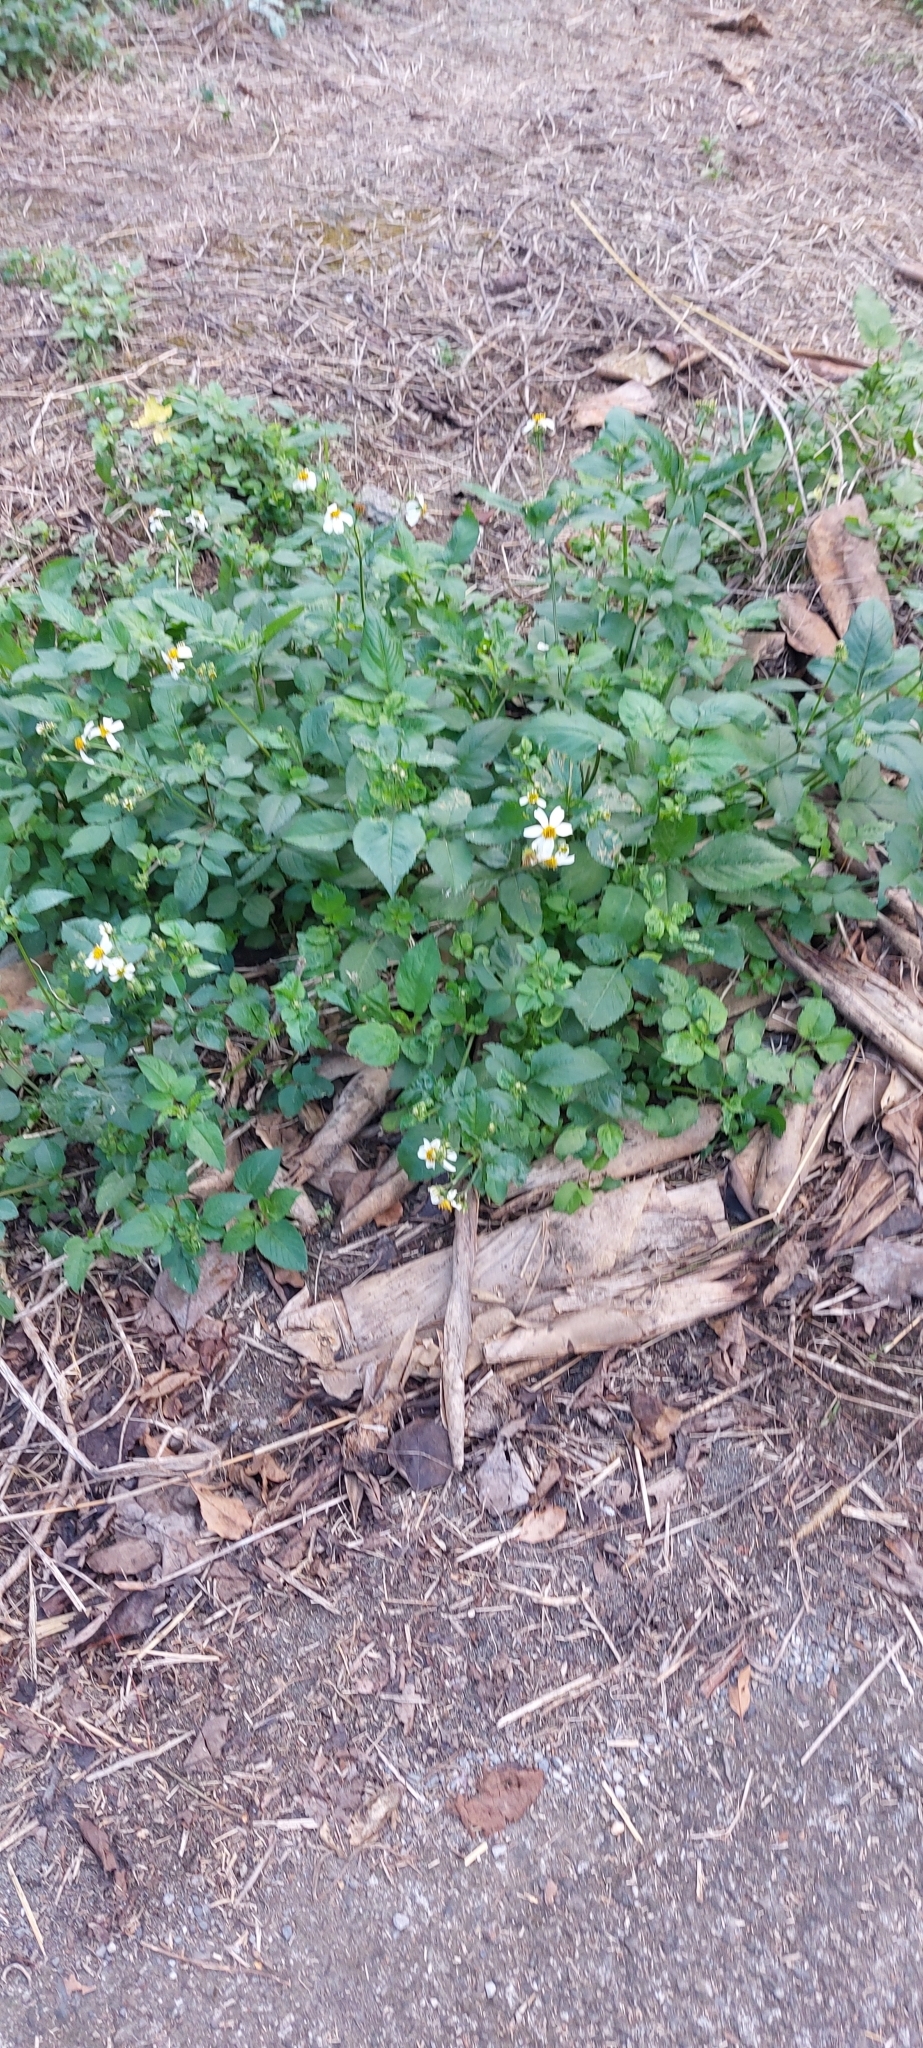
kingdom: Plantae
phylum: Tracheophyta
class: Magnoliopsida
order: Asterales
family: Asteraceae
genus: Bidens
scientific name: Bidens alba
